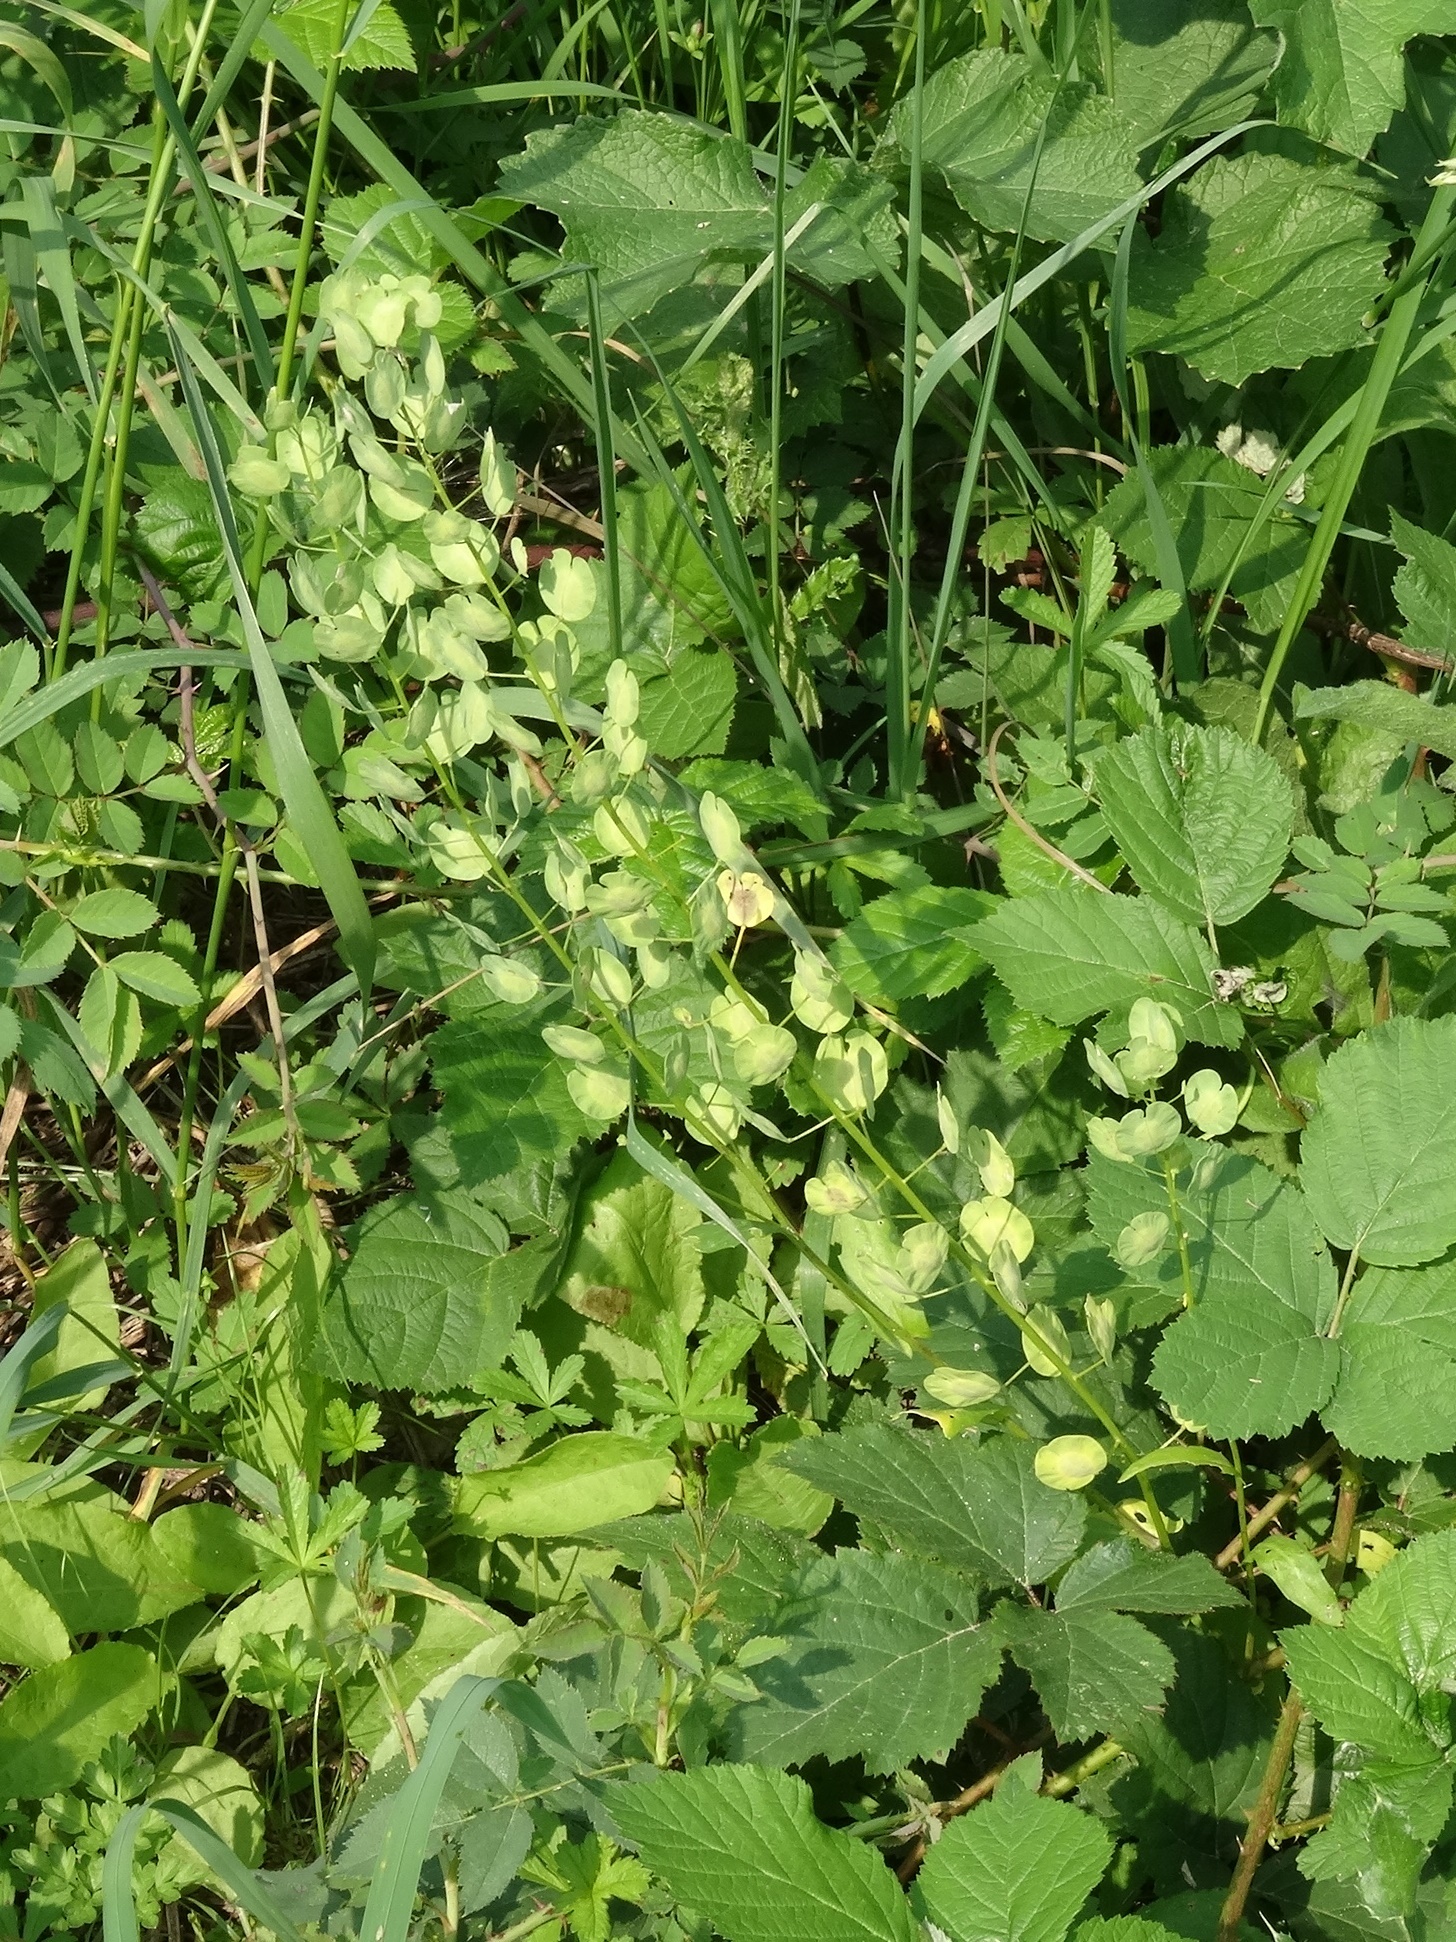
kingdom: Plantae
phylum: Tracheophyta
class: Magnoliopsida
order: Brassicales
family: Brassicaceae
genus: Thlaspi
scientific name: Thlaspi arvense
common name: Field pennycress
